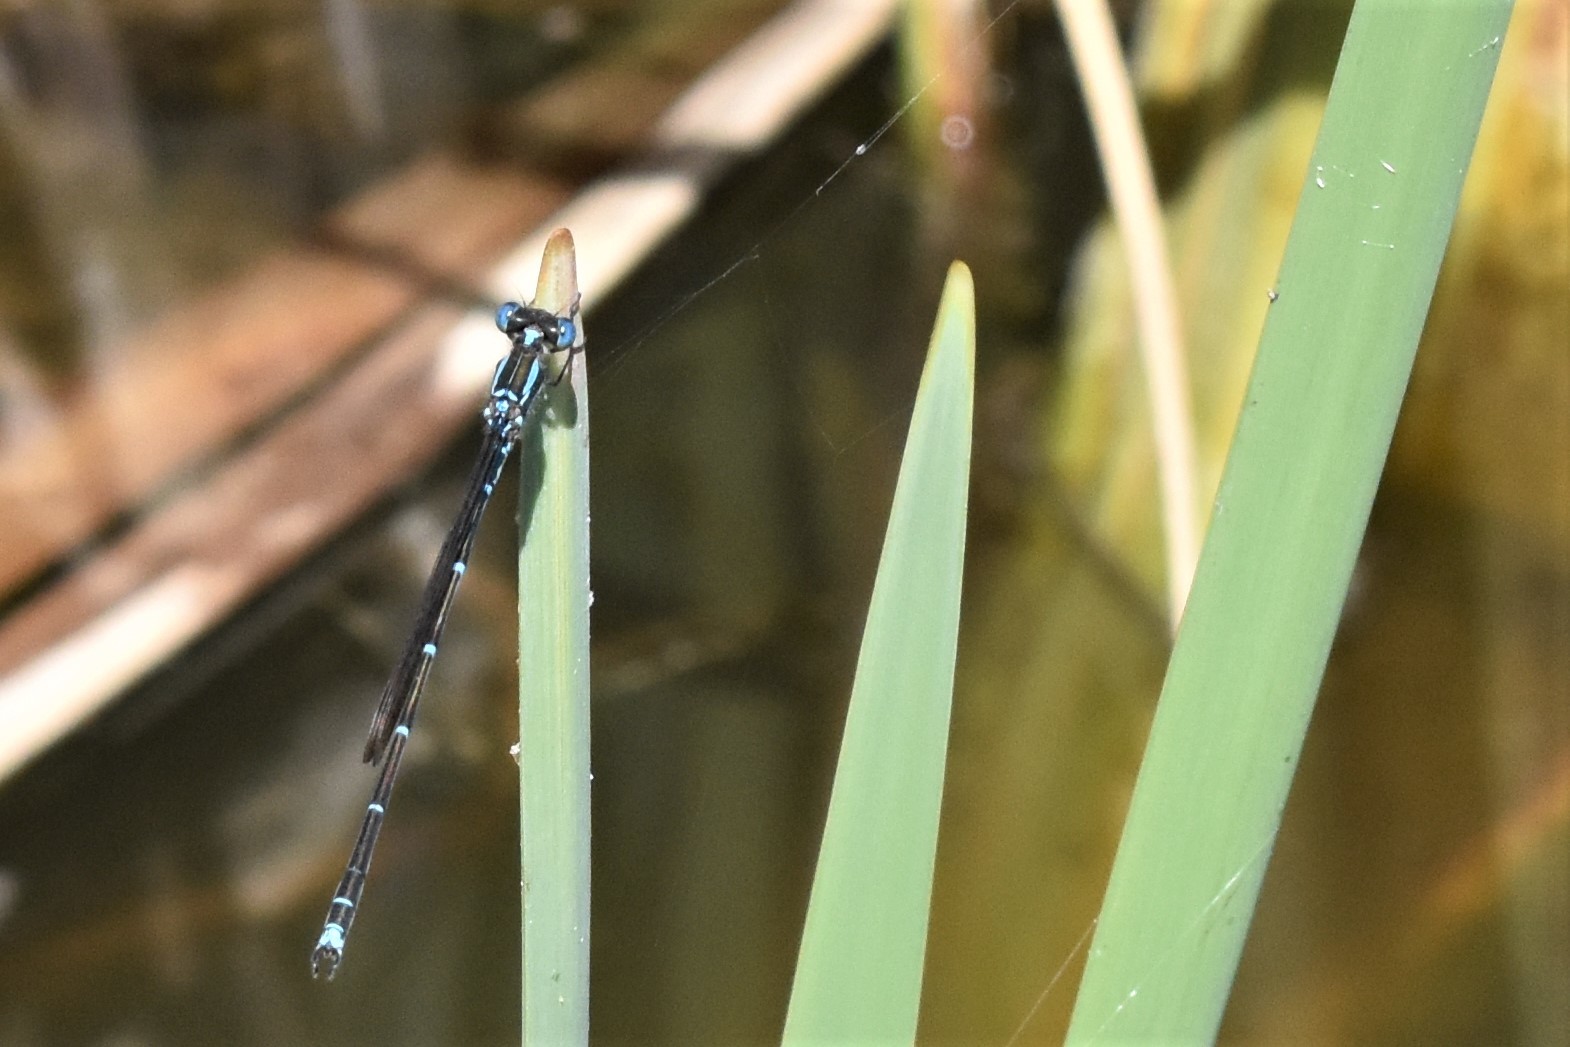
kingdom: Animalia
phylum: Arthropoda
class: Insecta
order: Odonata
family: Lestidae
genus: Austrolestes
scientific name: Austrolestes colensonis
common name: Blue damselfly
